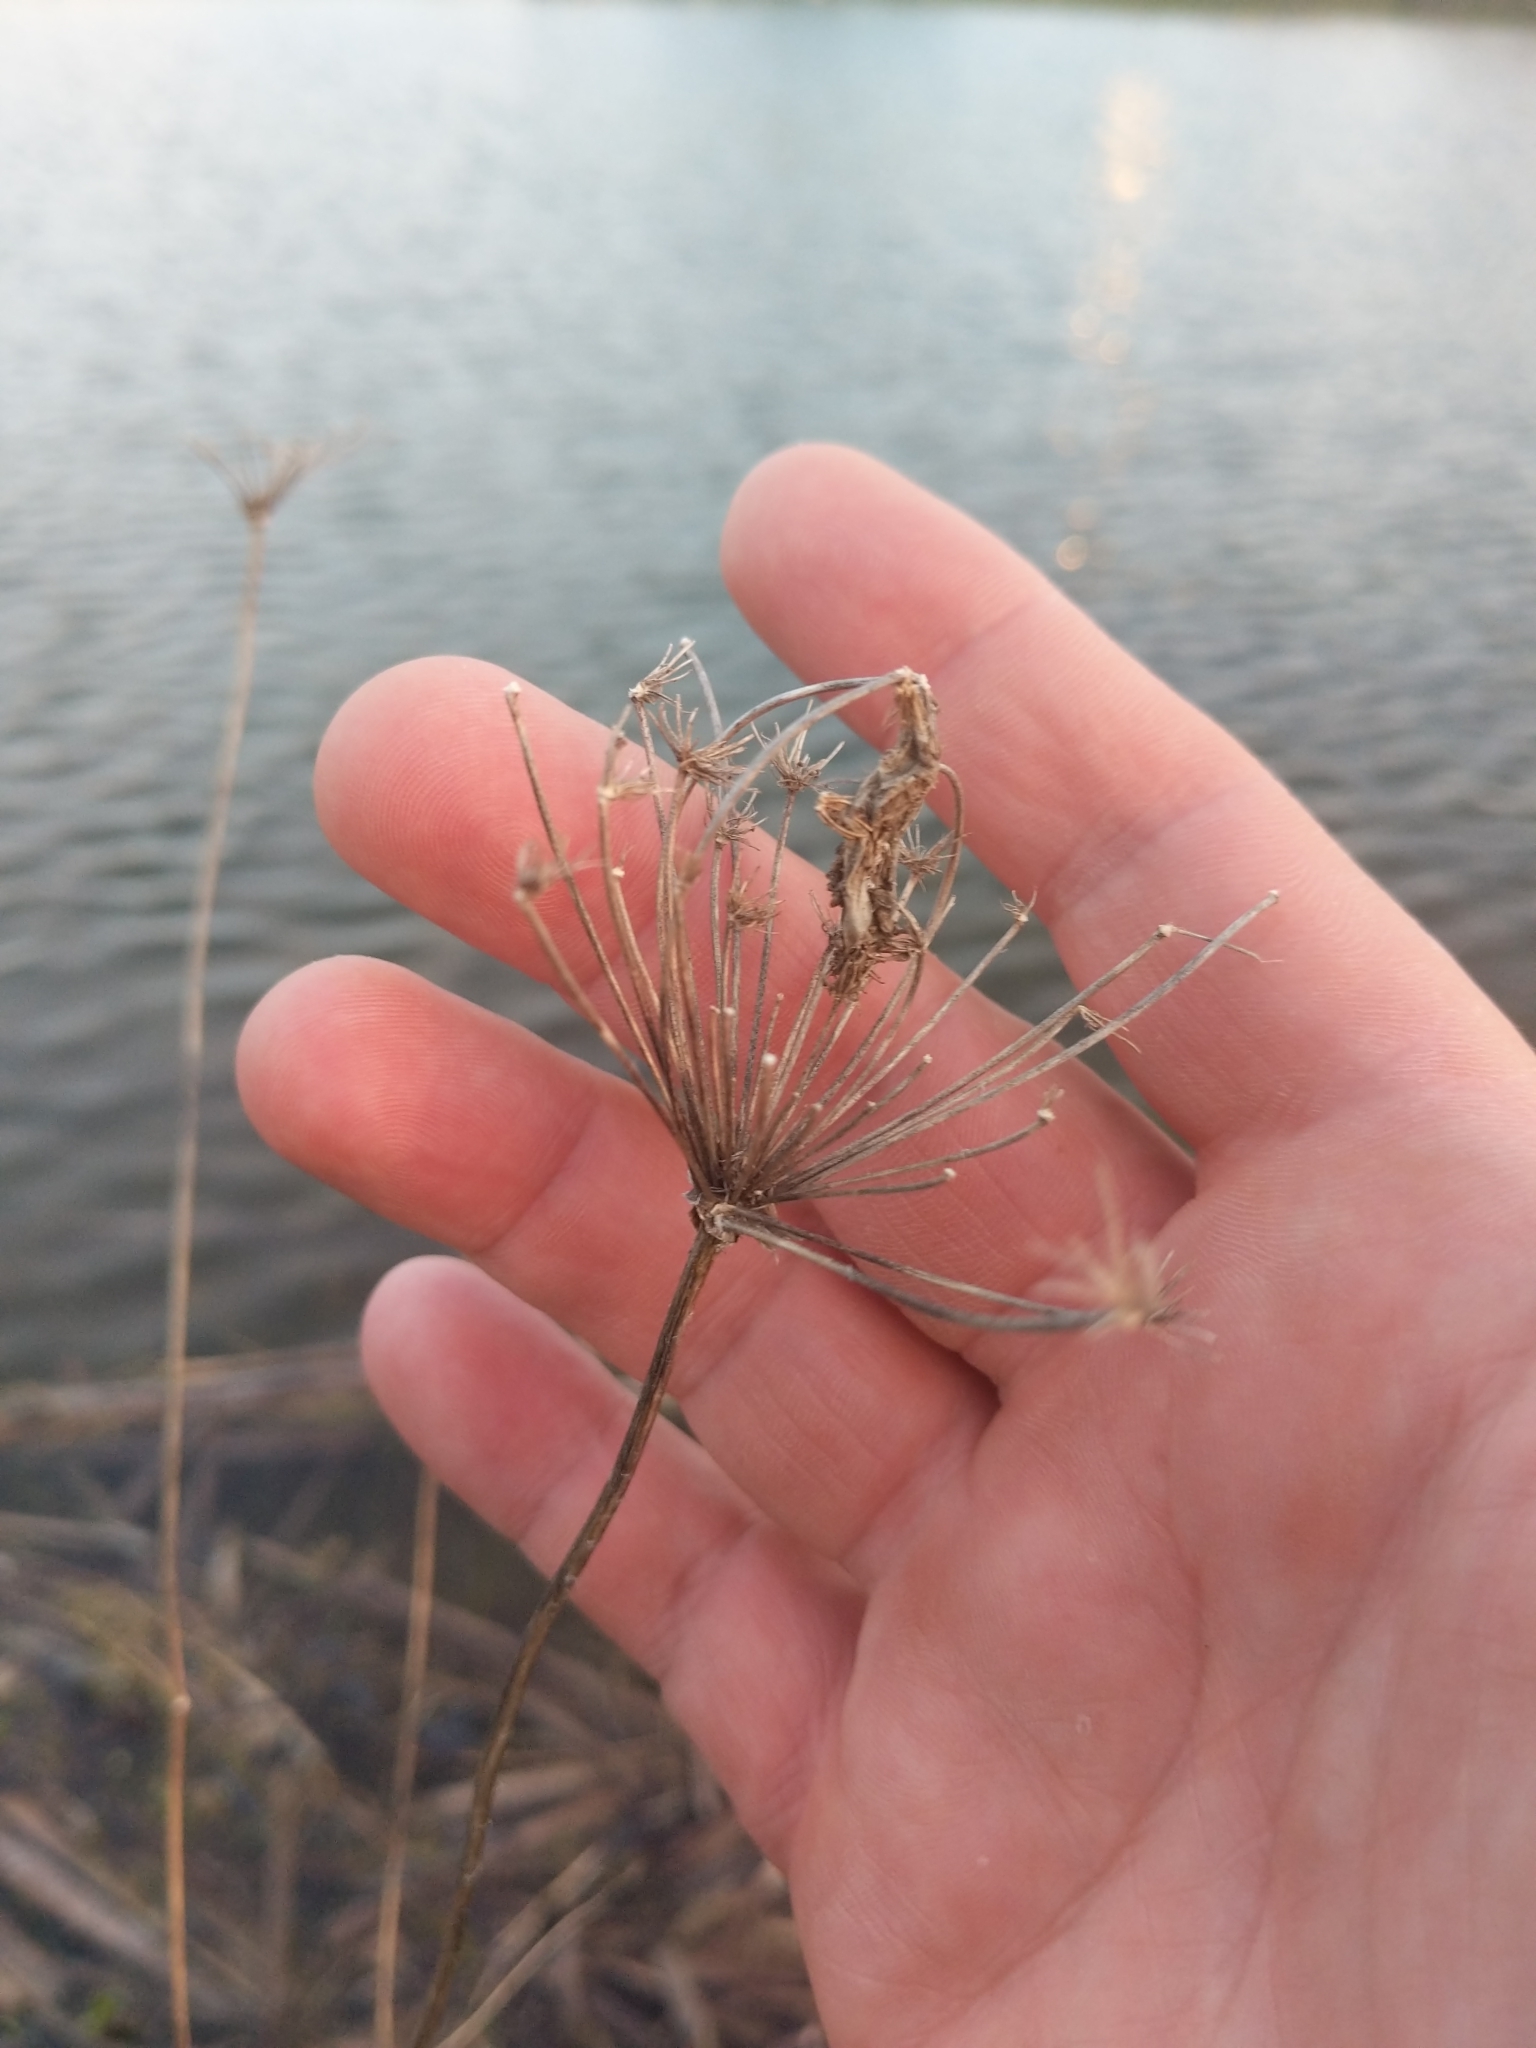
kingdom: Plantae
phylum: Tracheophyta
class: Magnoliopsida
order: Apiales
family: Apiaceae
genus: Daucus
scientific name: Daucus carota
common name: Wild carrot
